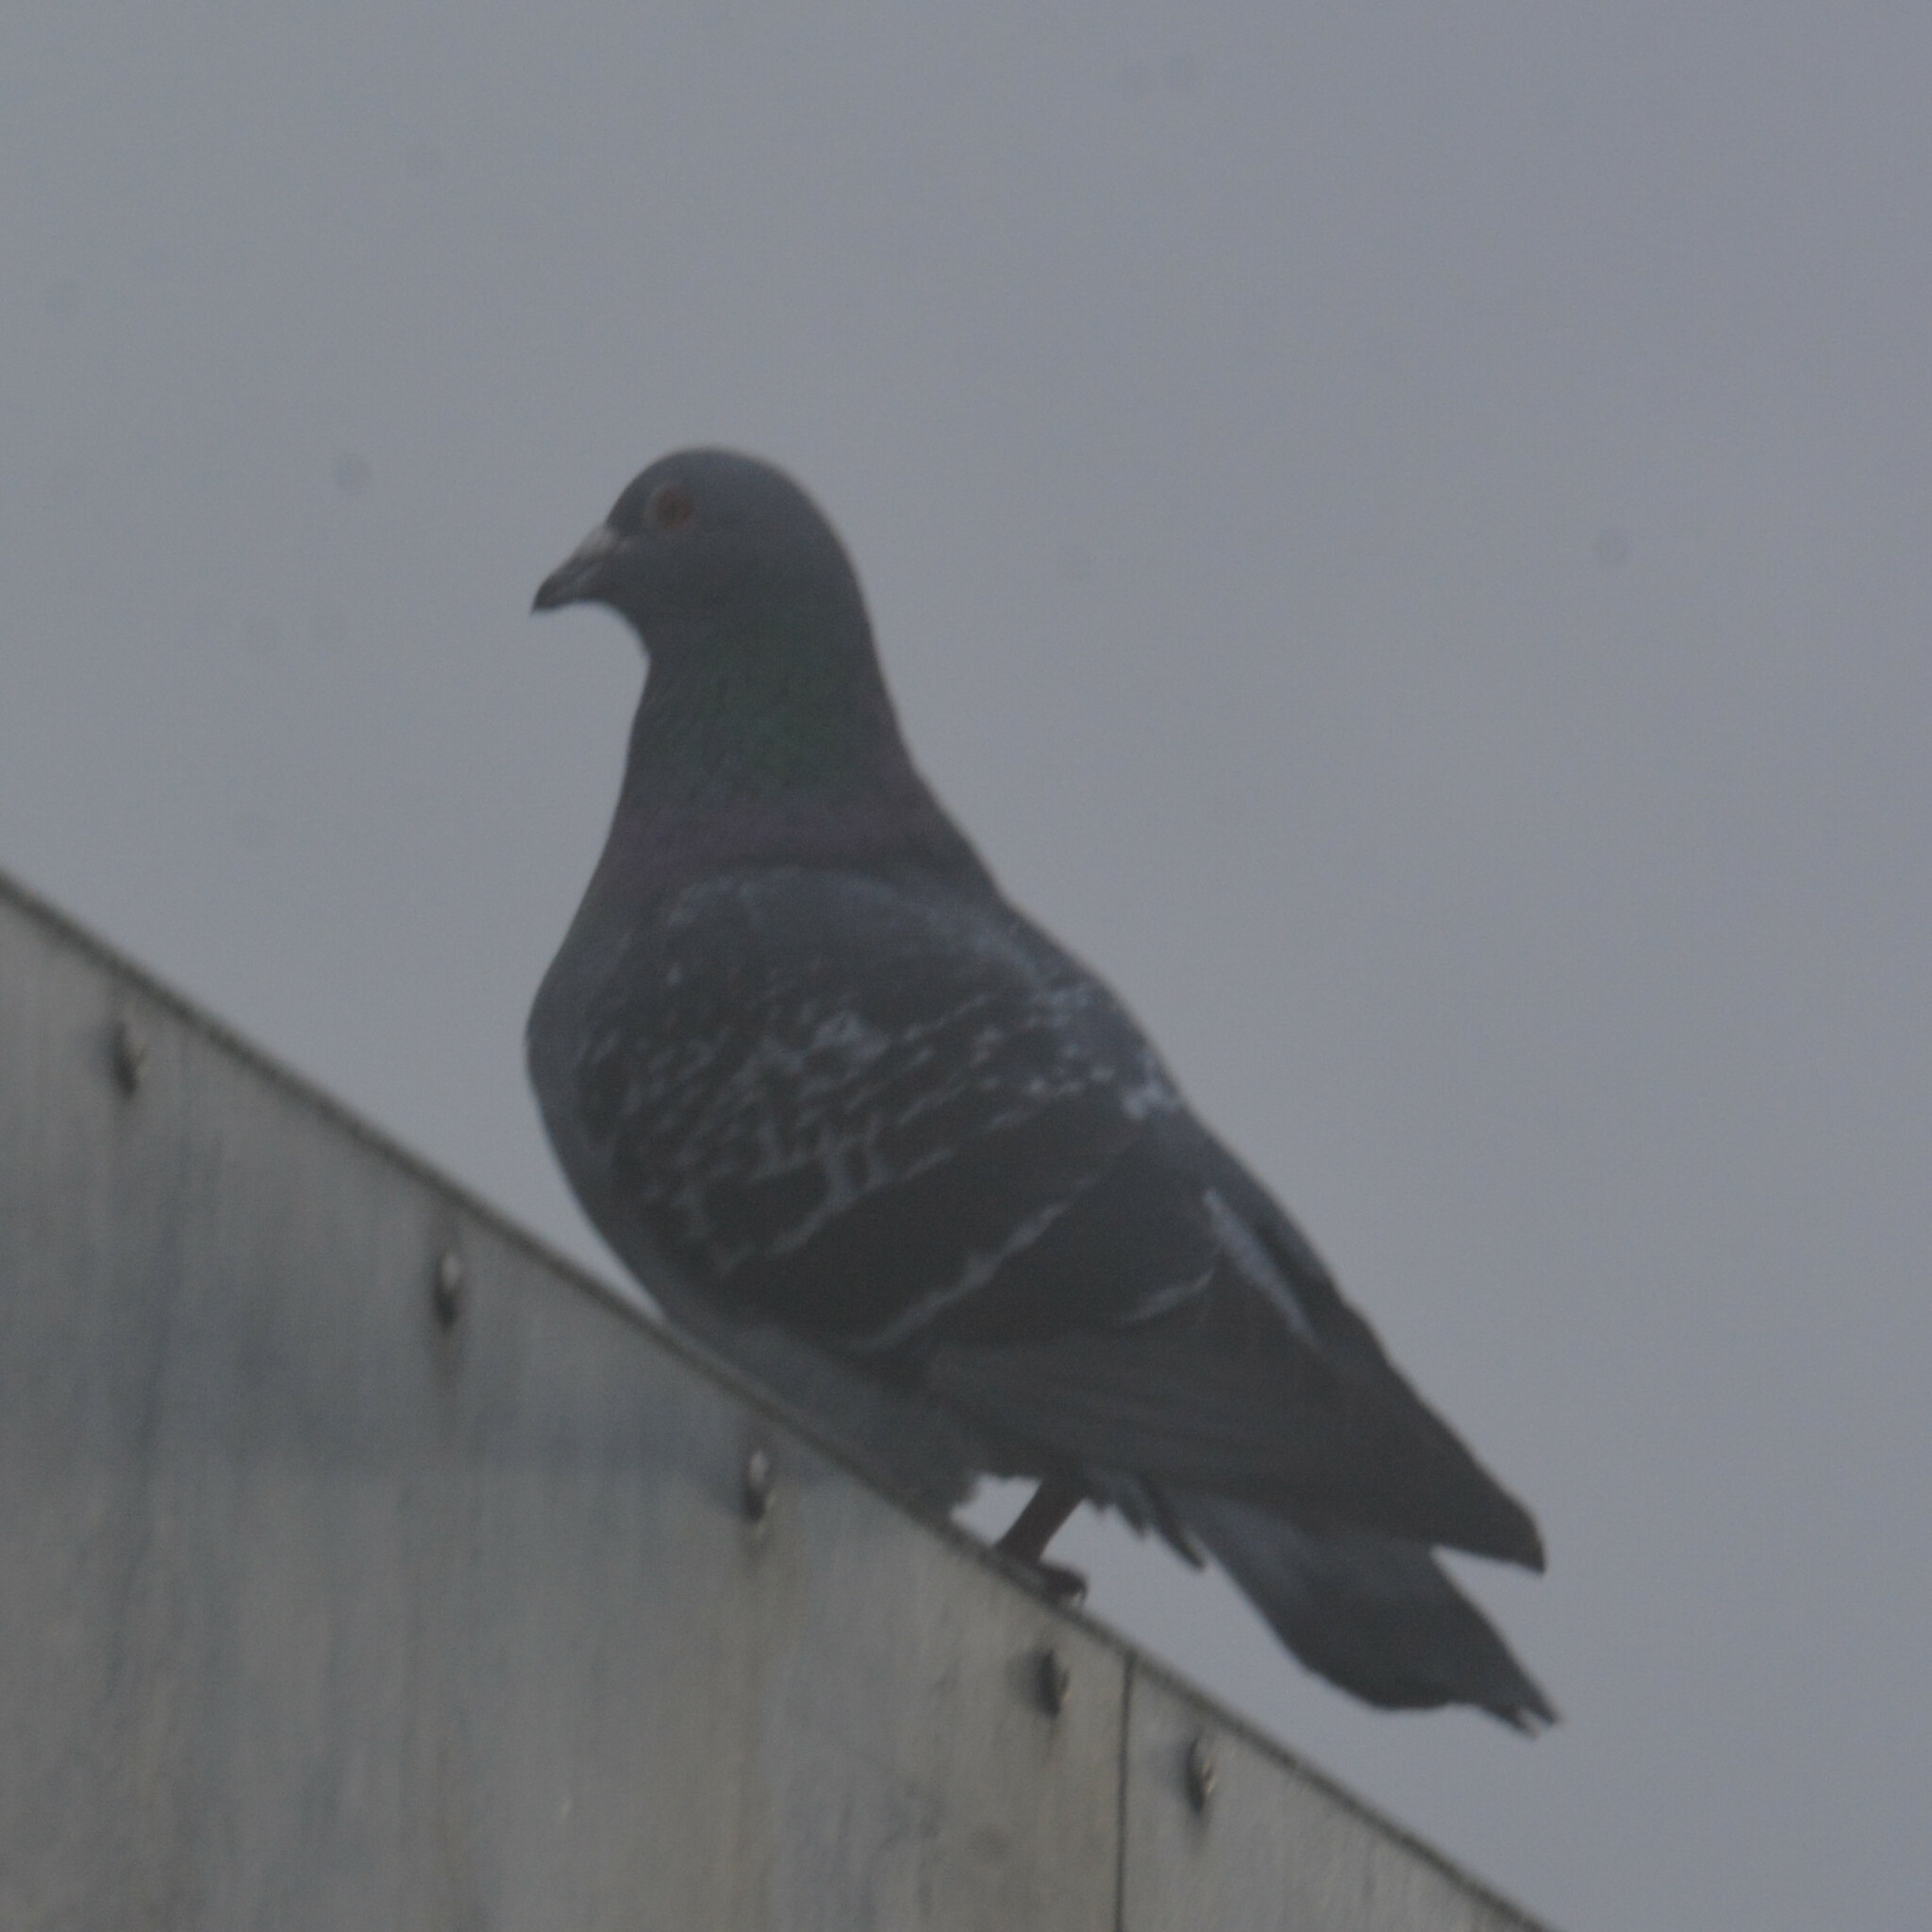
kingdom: Animalia
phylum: Chordata
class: Aves
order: Columbiformes
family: Columbidae
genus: Columba
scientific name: Columba livia
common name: Rock pigeon
